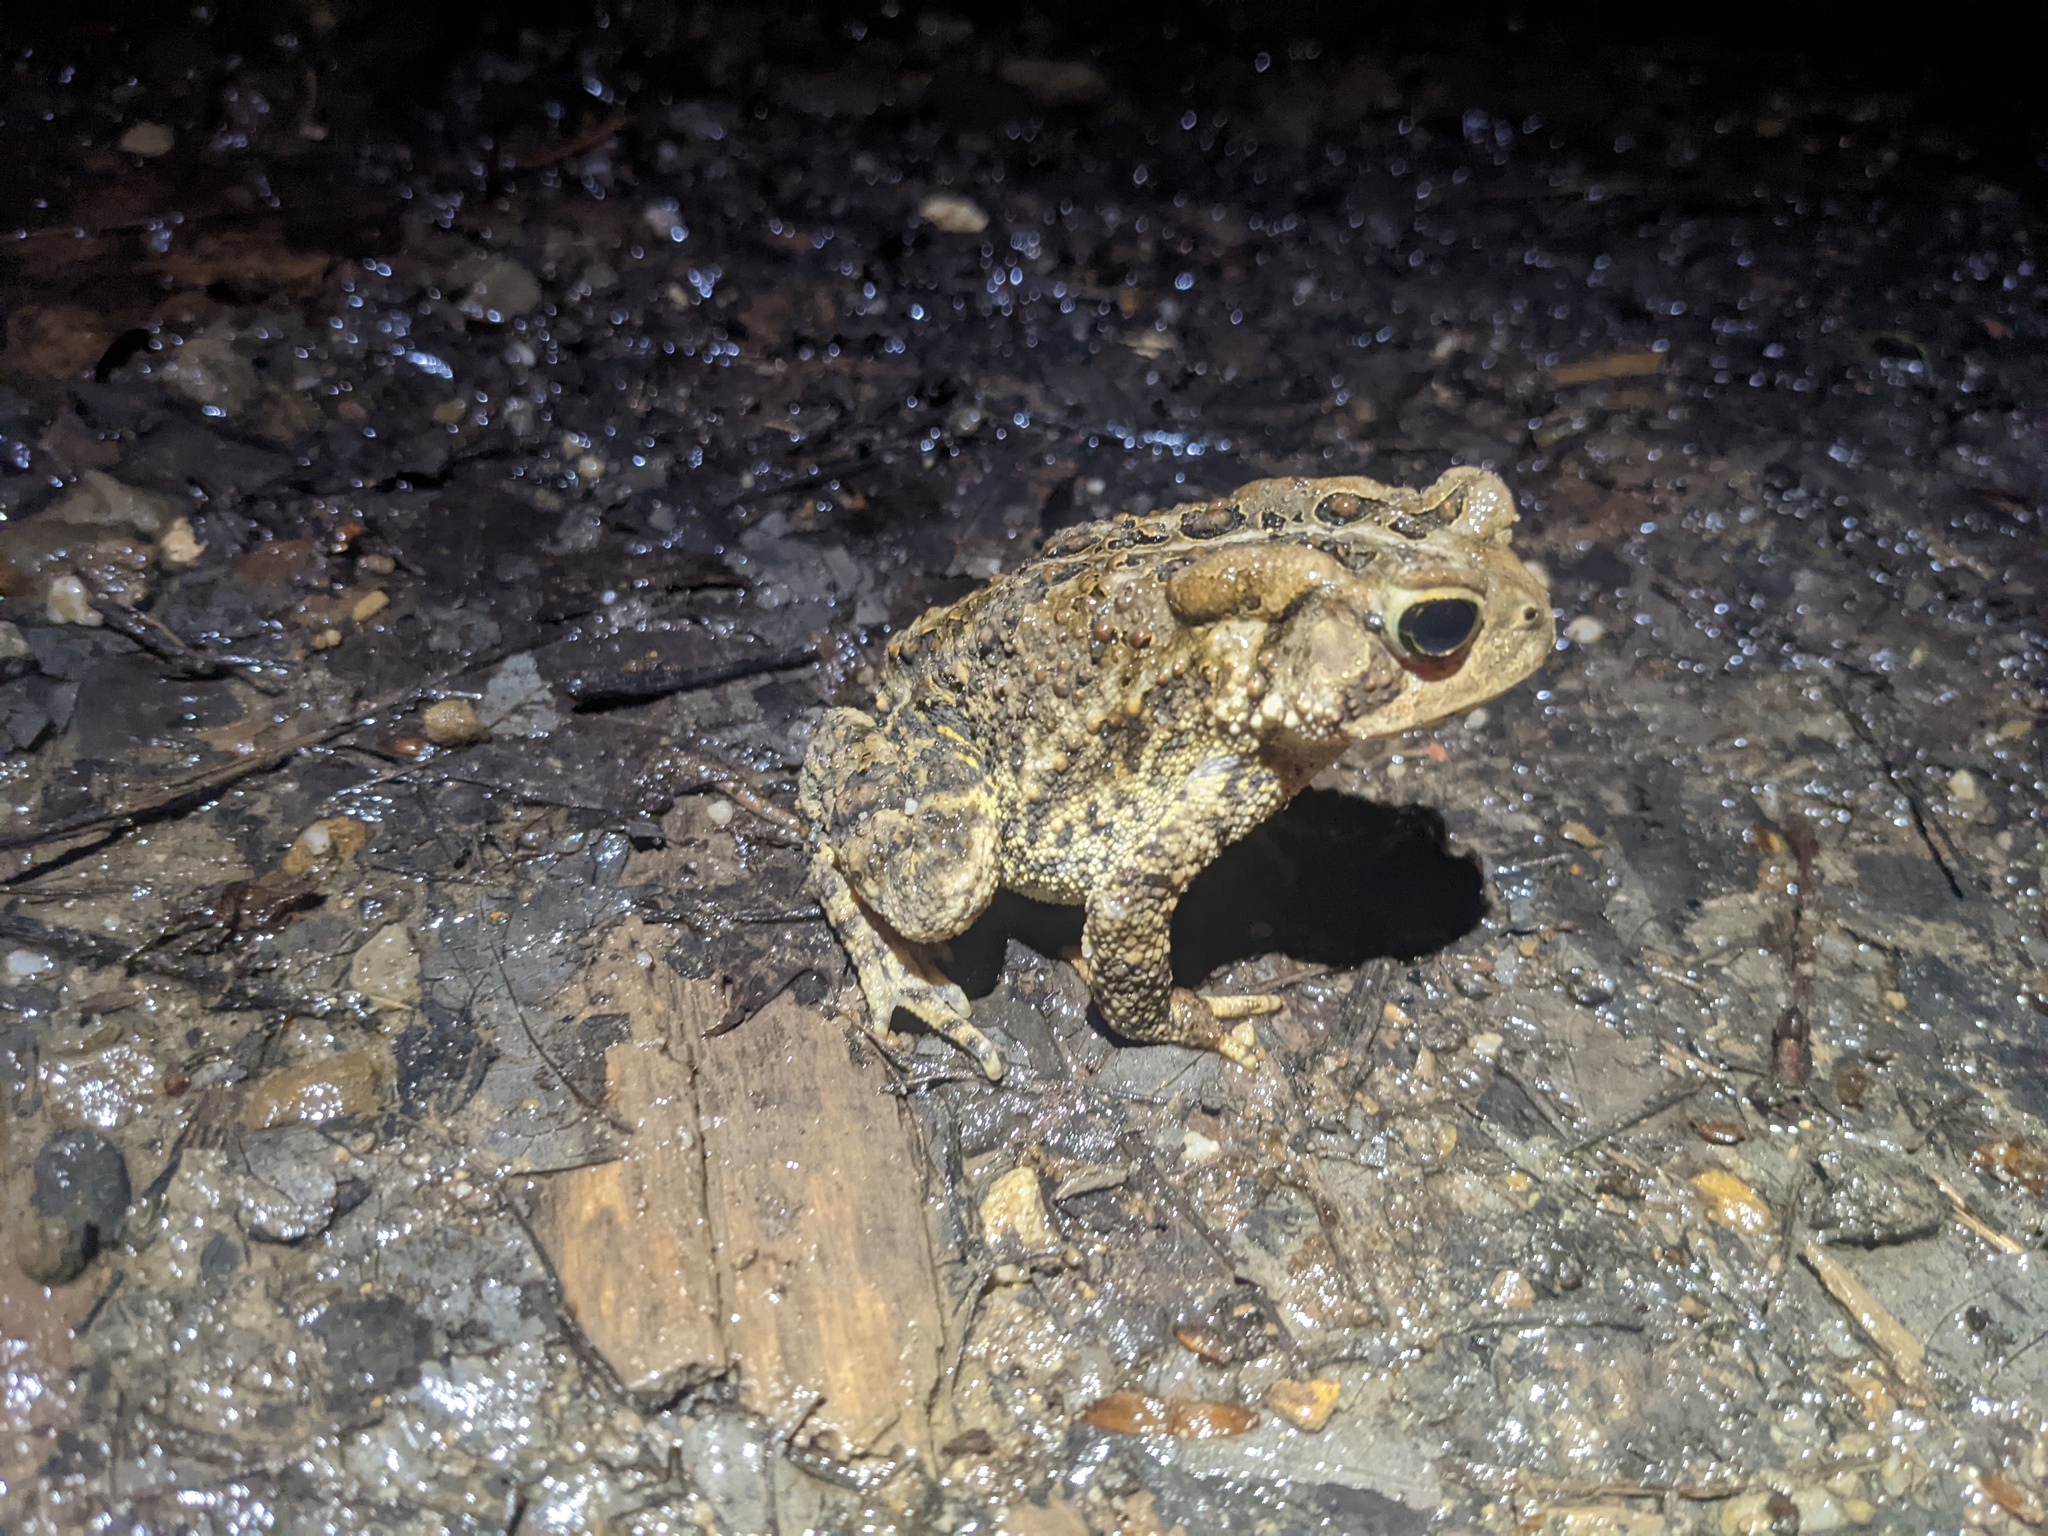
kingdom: Animalia
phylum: Chordata
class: Amphibia
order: Anura
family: Bufonidae
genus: Anaxyrus
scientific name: Anaxyrus americanus
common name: American toad
